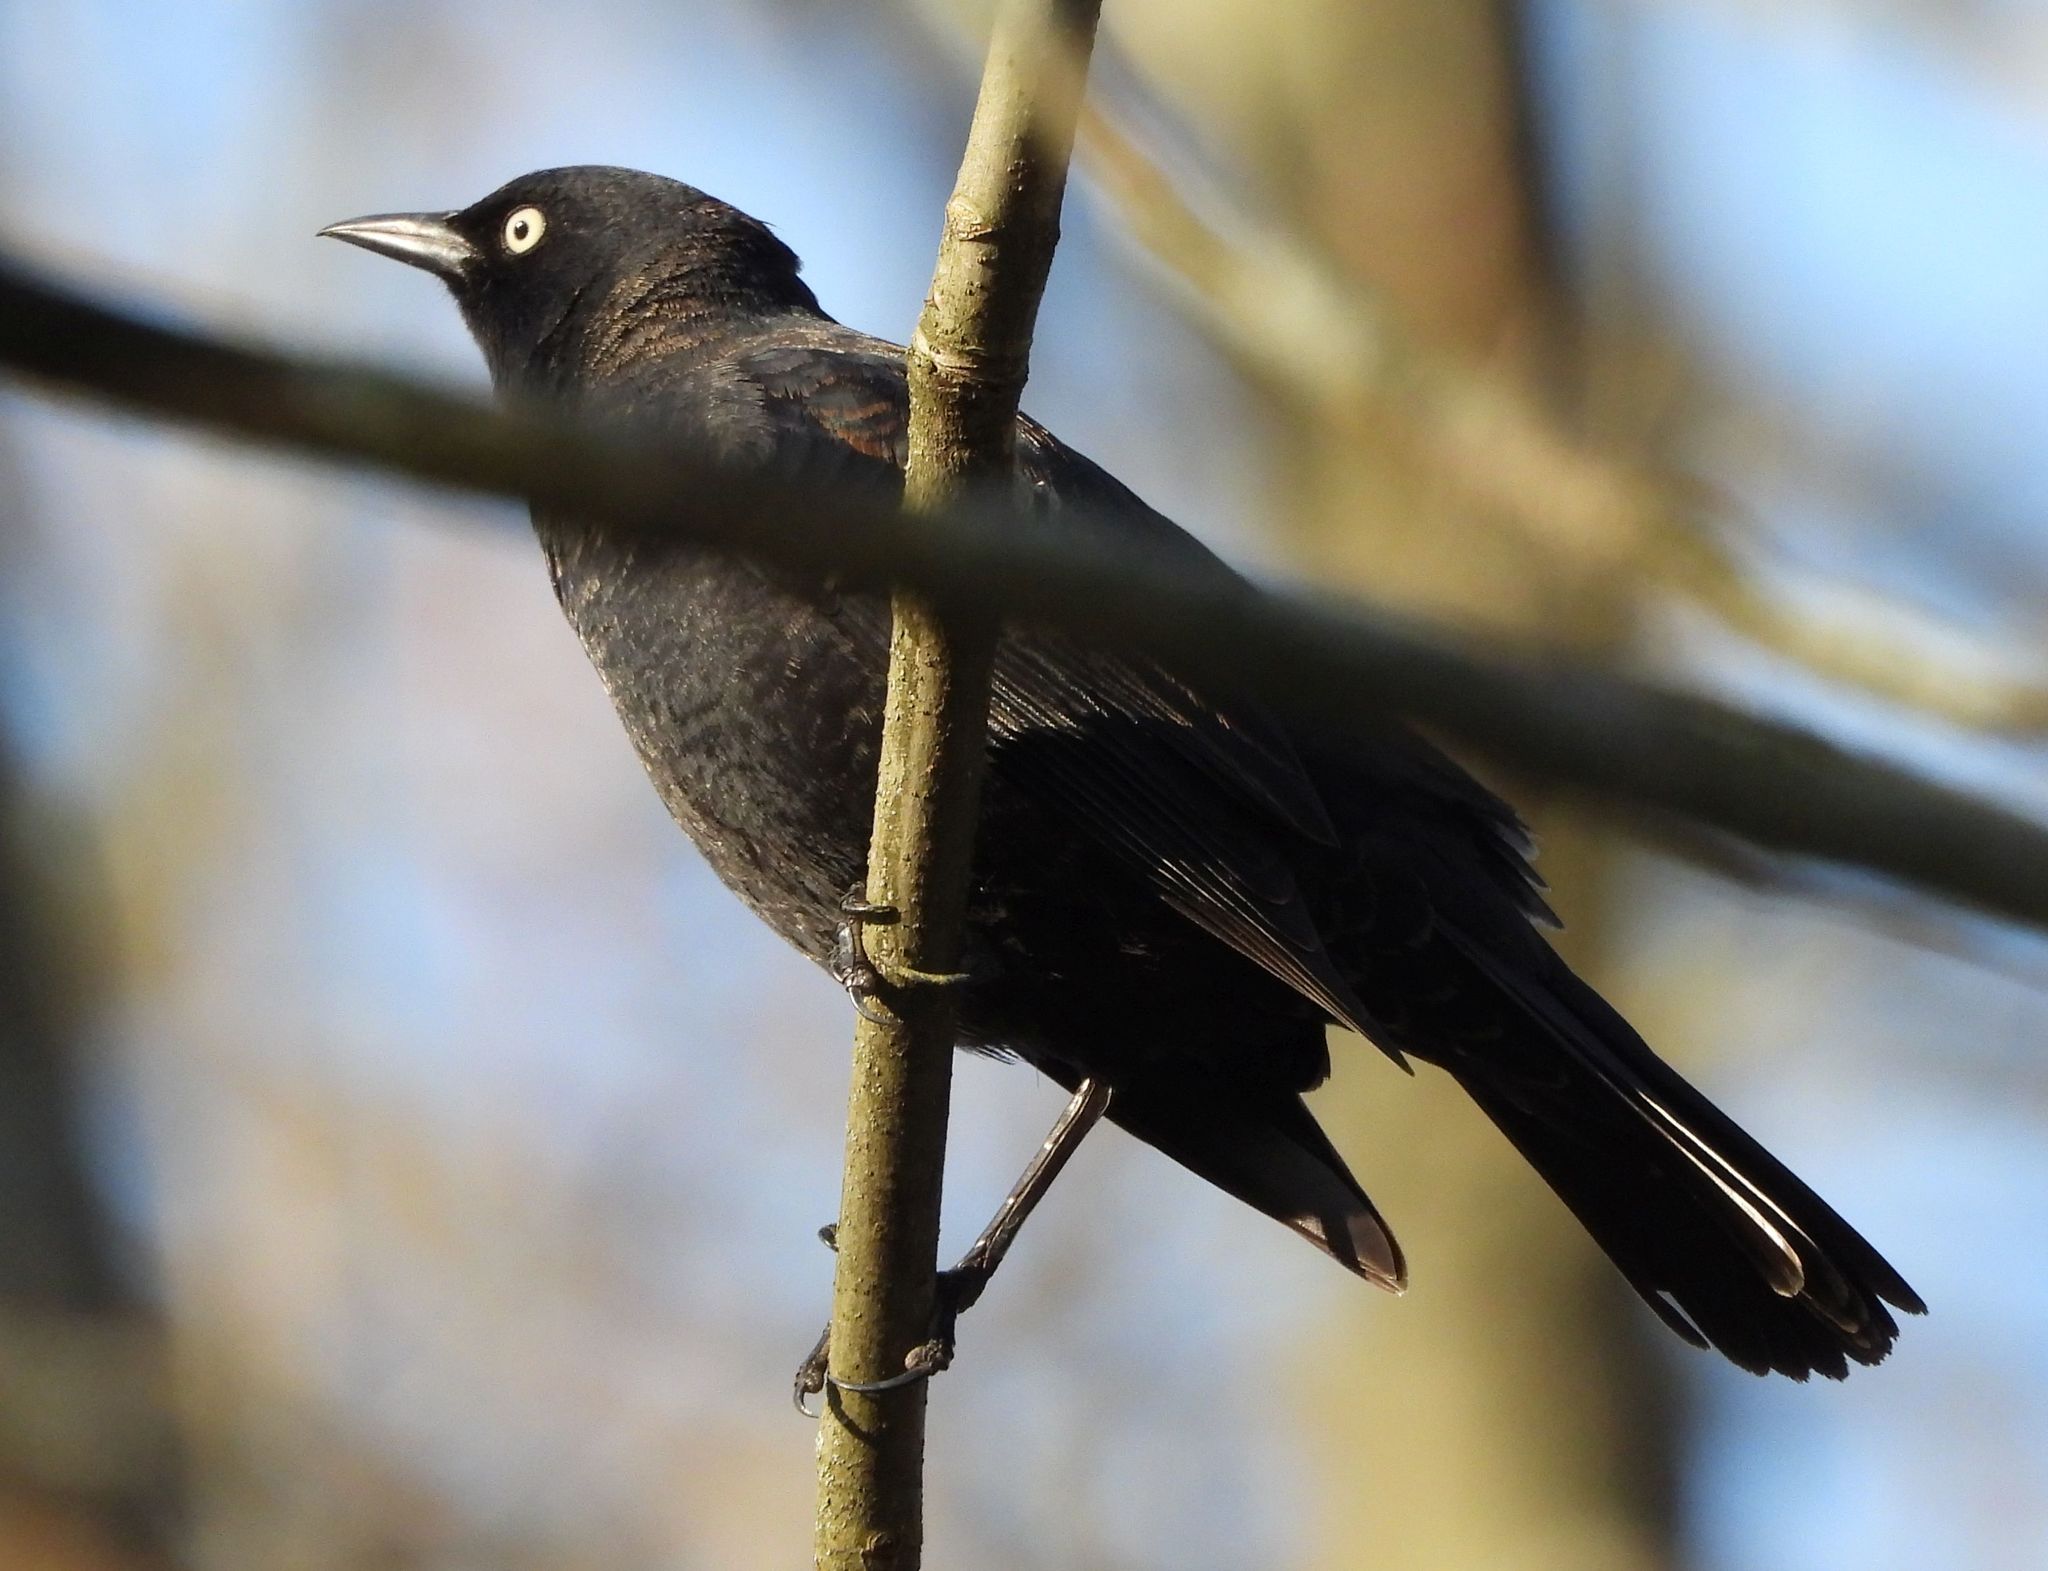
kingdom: Animalia
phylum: Chordata
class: Aves
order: Passeriformes
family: Icteridae
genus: Euphagus
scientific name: Euphagus carolinus
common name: Rusty blackbird
